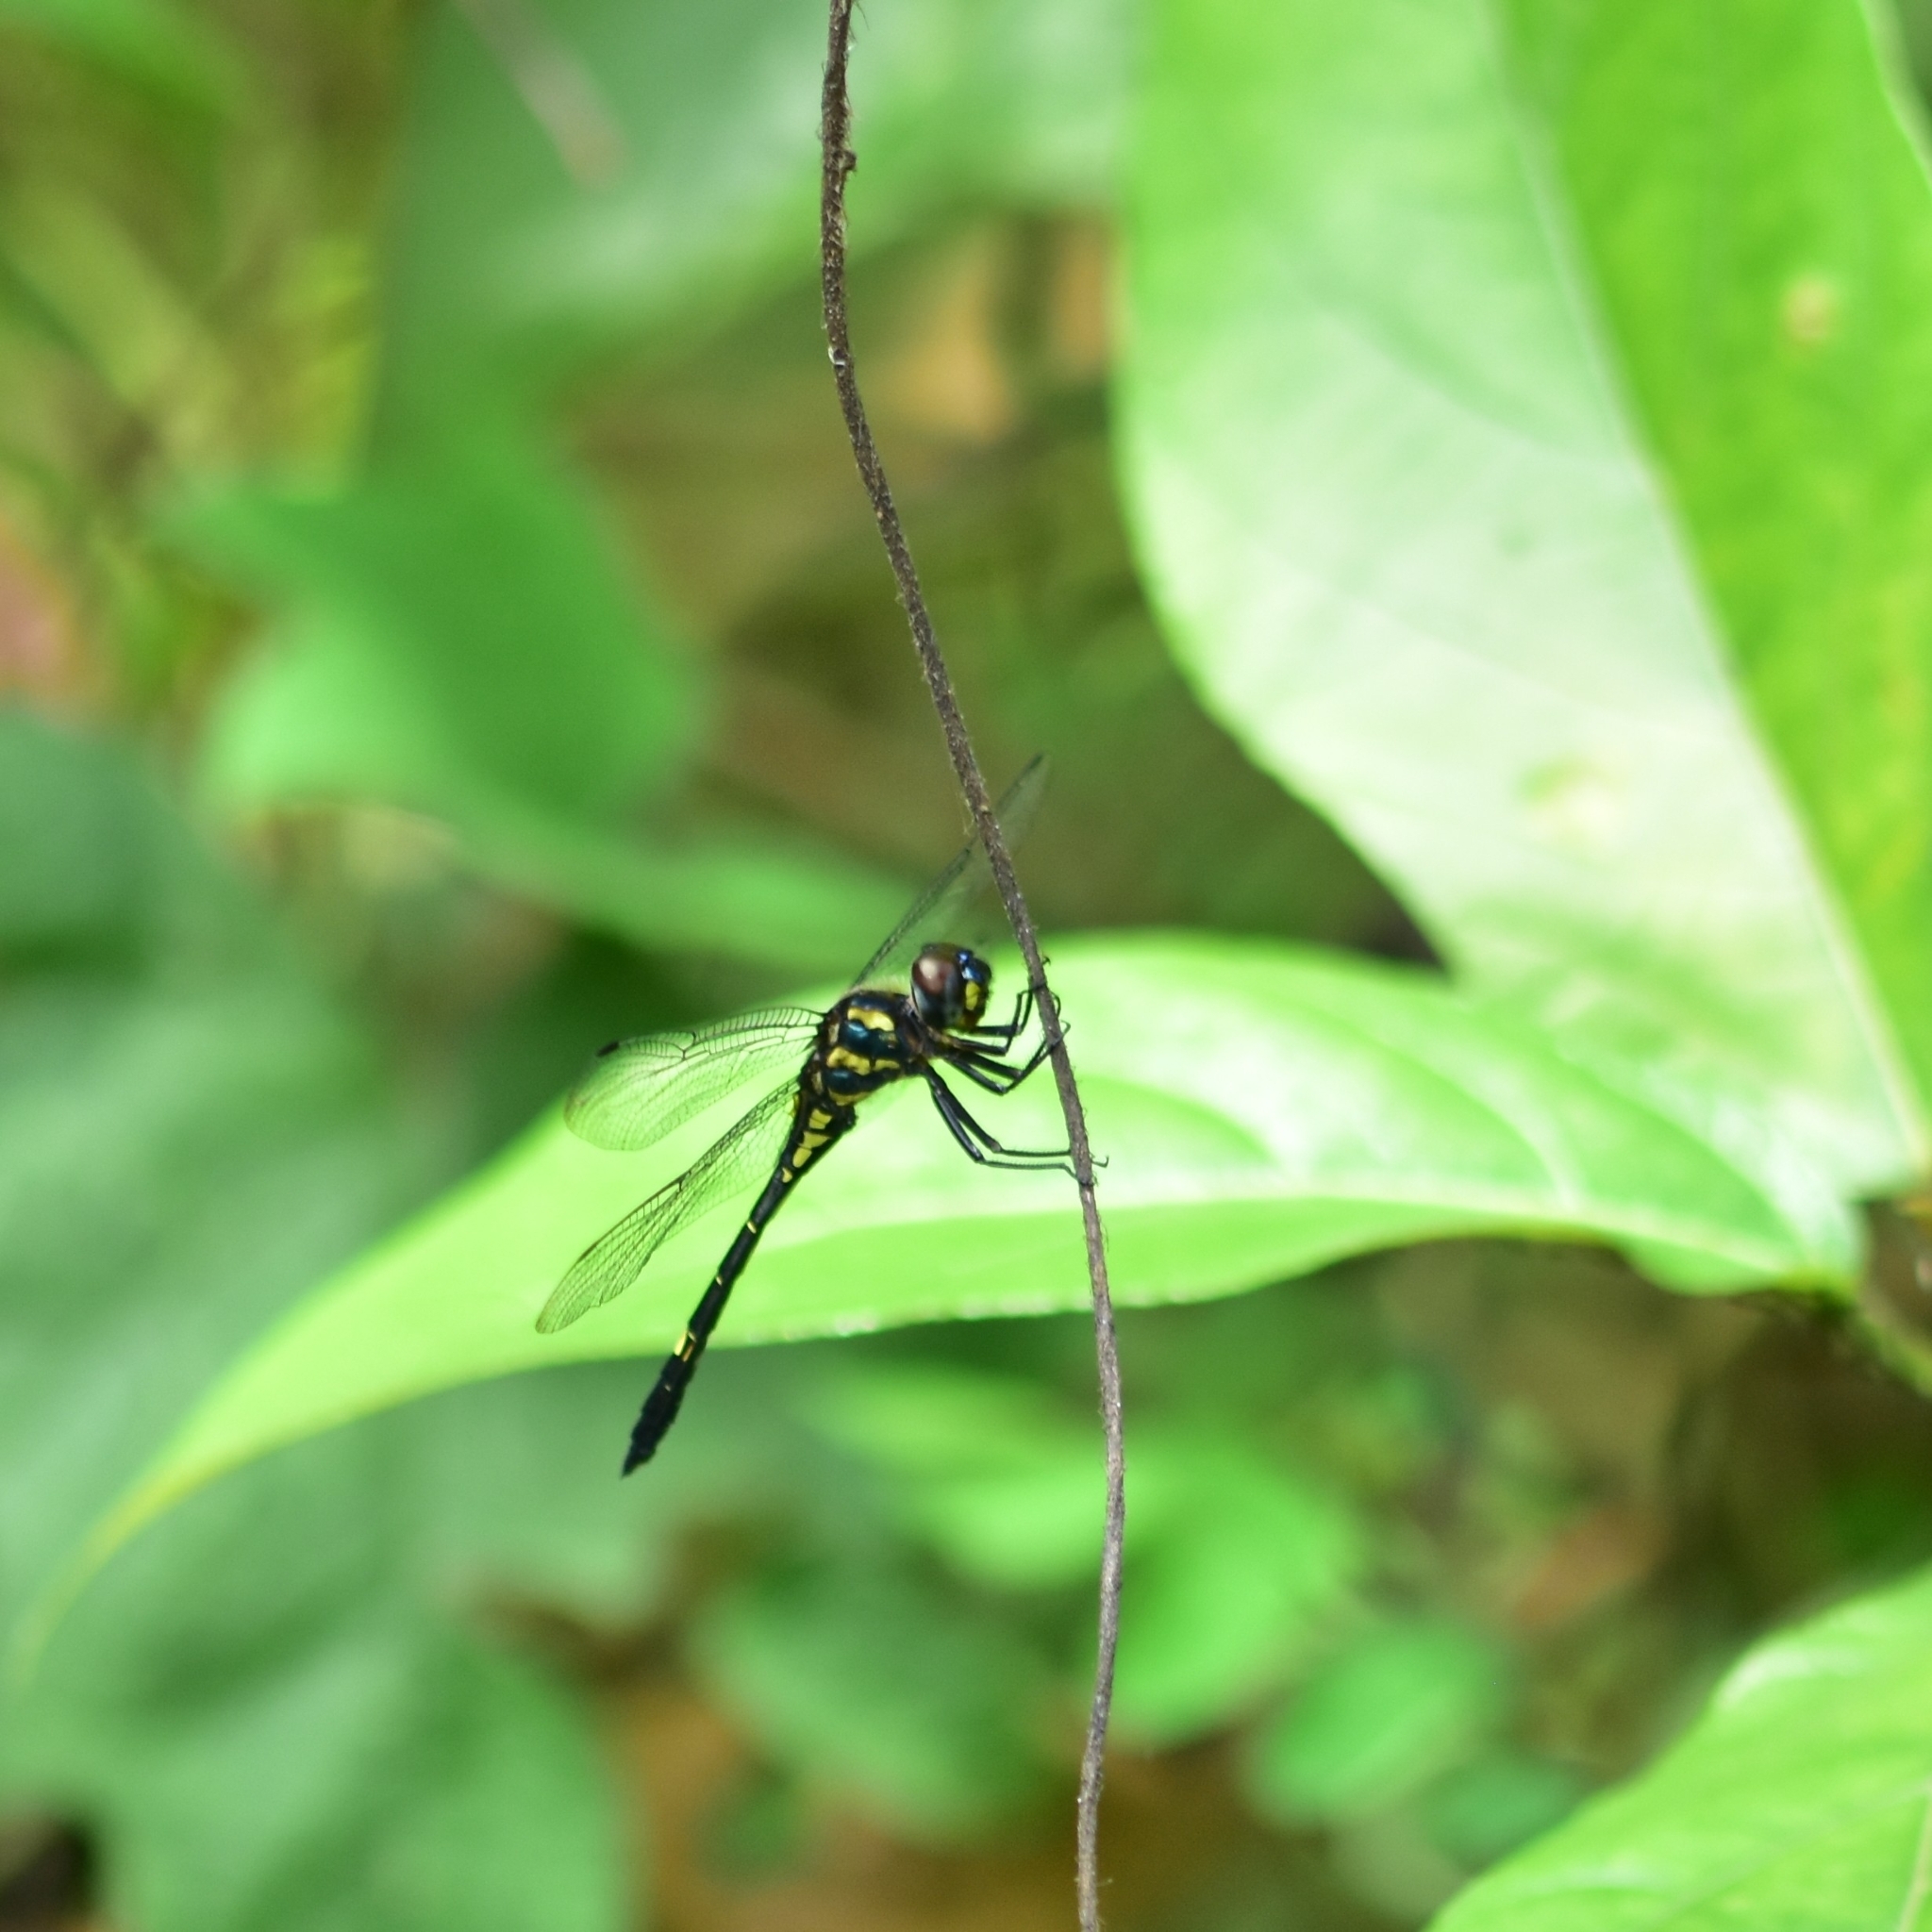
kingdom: Animalia
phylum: Arthropoda
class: Insecta
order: Odonata
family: Libellulidae
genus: Zygonyx
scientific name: Zygonyx iris
